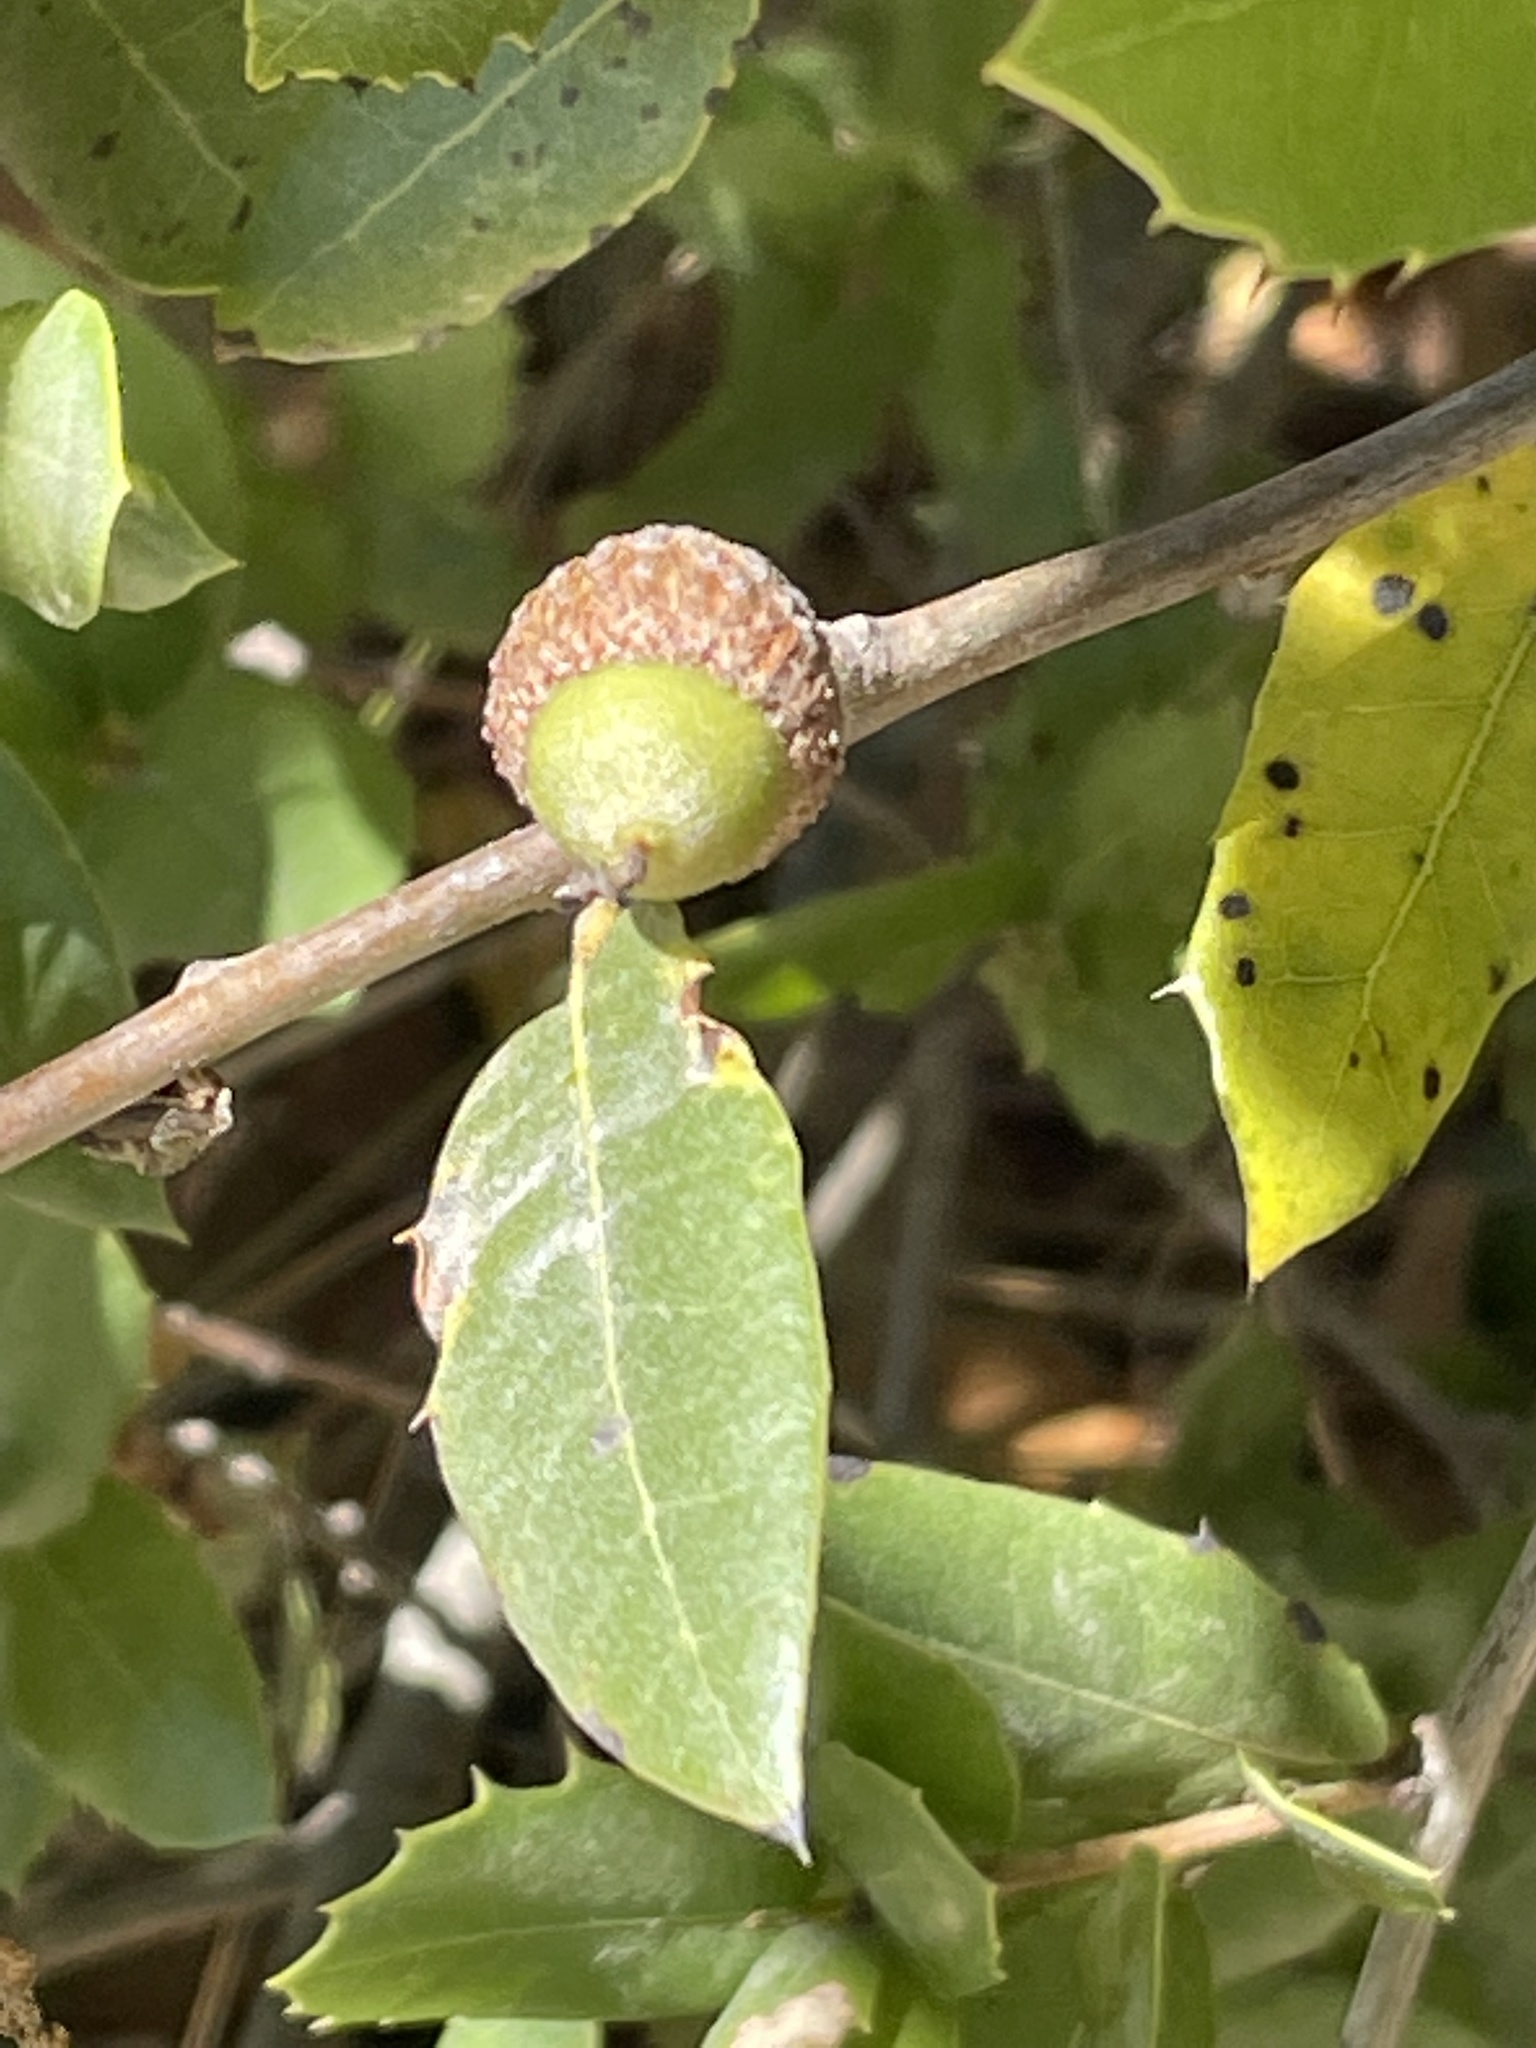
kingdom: Plantae
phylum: Tracheophyta
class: Magnoliopsida
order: Fagales
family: Fagaceae
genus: Quercus
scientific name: Quercus wislizeni
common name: Interior live oak
